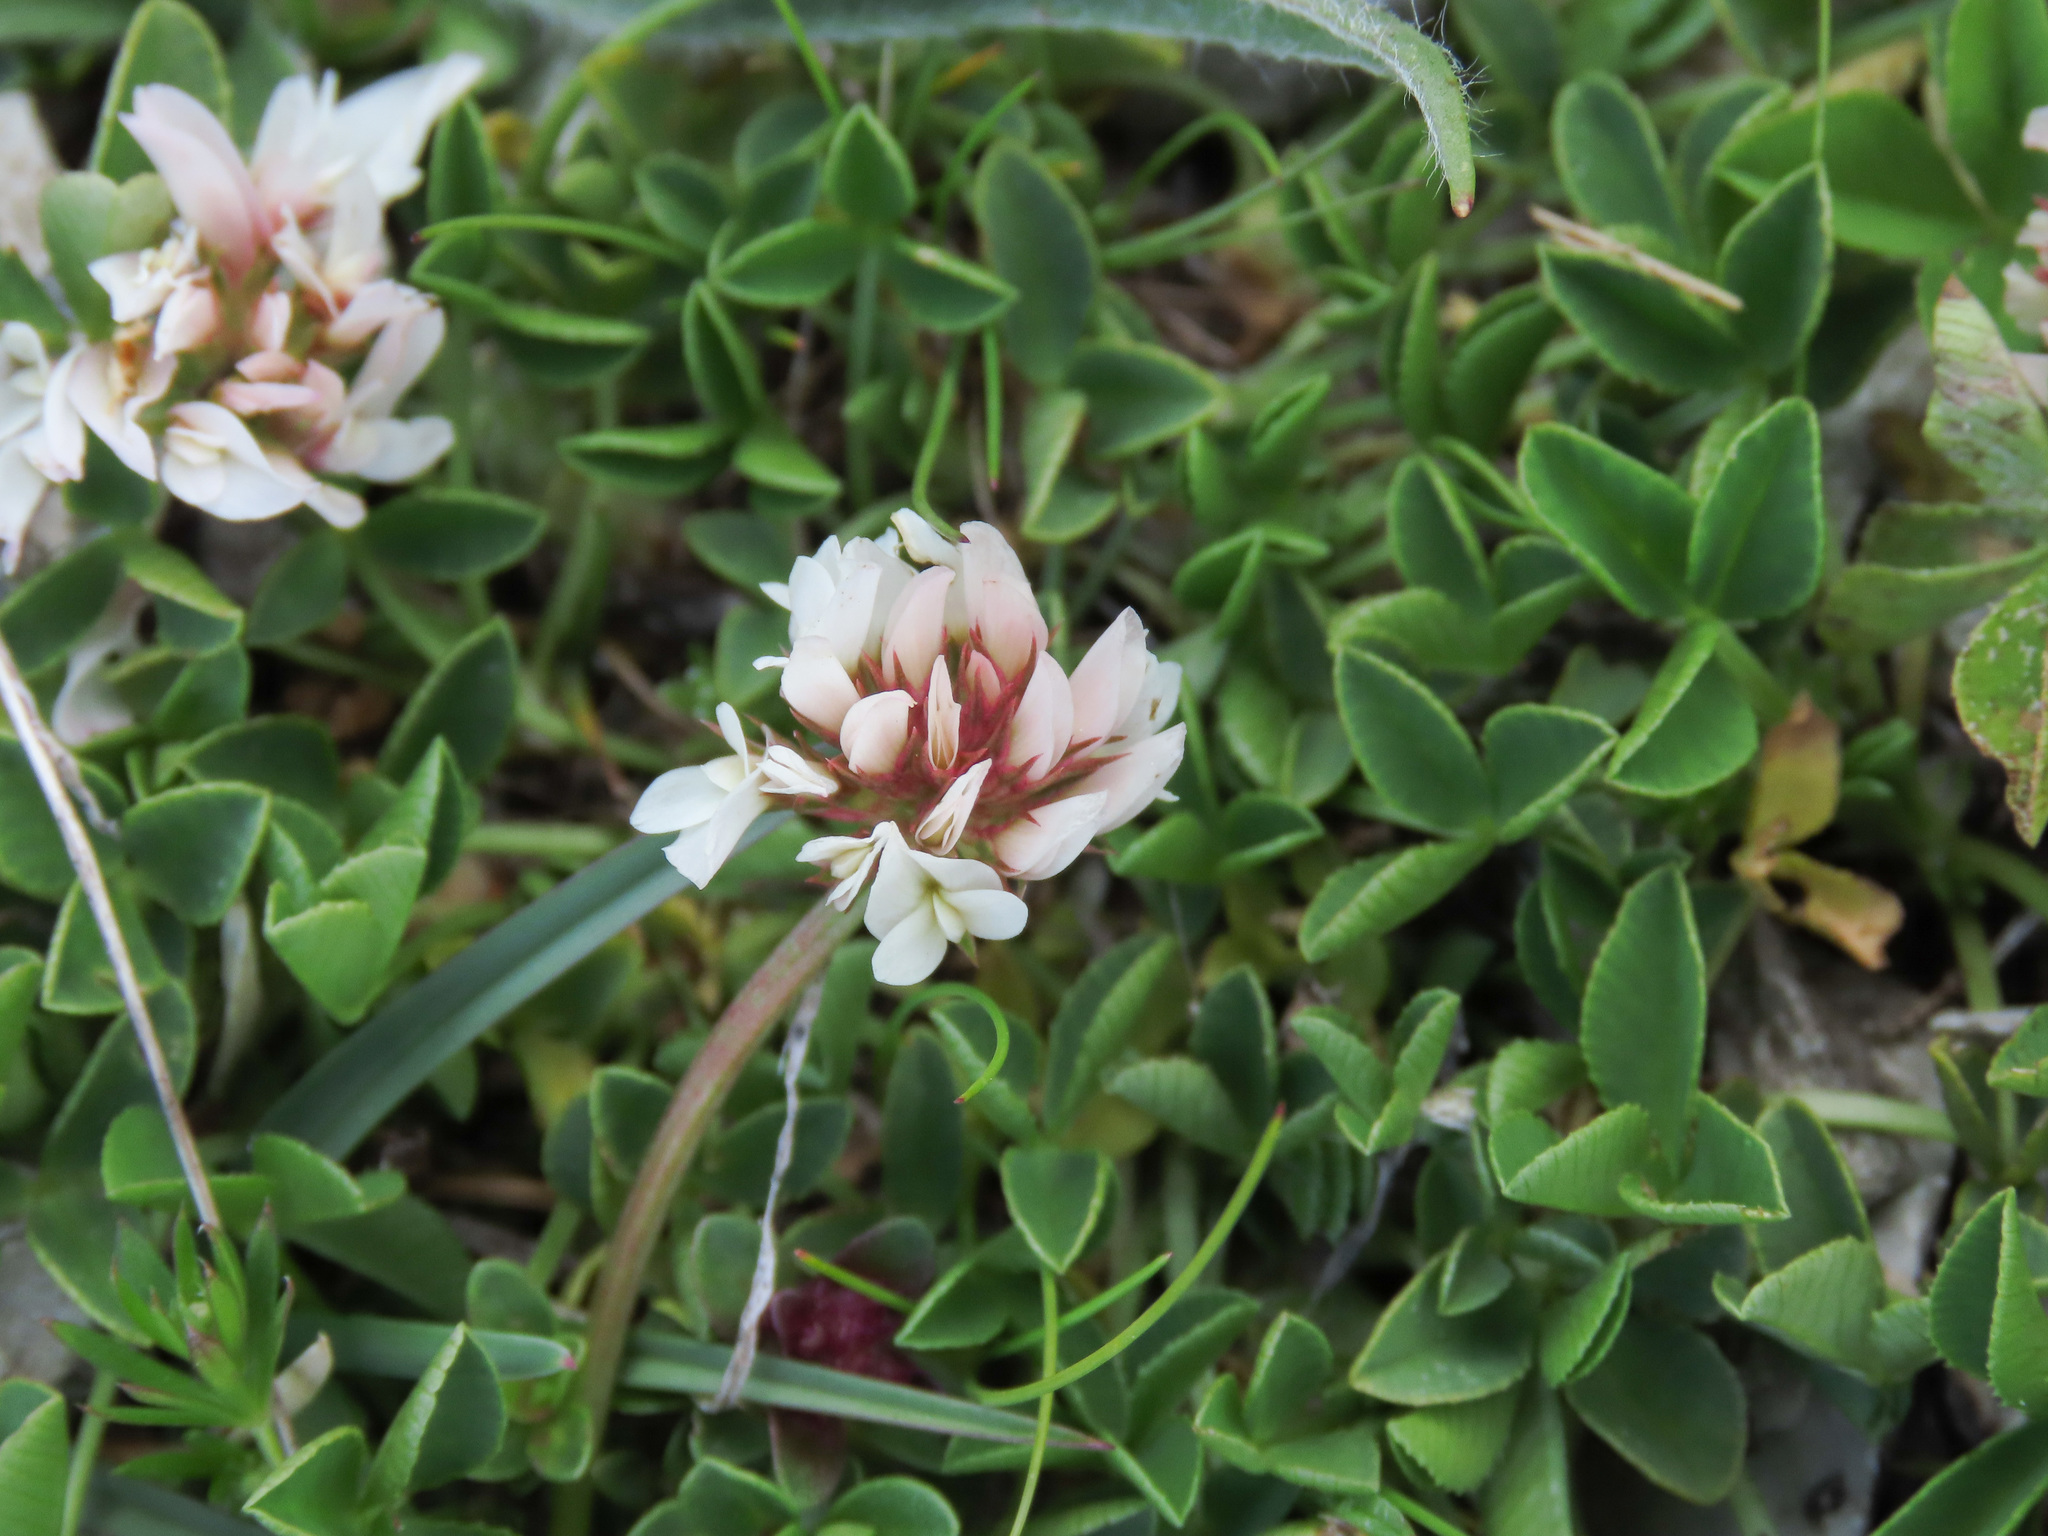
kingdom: Plantae
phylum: Tracheophyta
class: Magnoliopsida
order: Fabales
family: Fabaceae
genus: Trifolium
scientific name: Trifolium thalii
